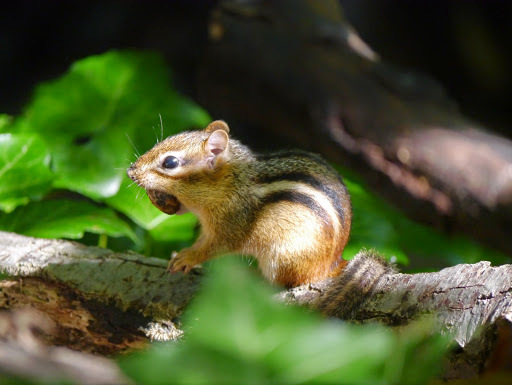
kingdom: Animalia
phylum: Chordata
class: Mammalia
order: Rodentia
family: Sciuridae
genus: Tamias
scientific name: Tamias striatus
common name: Eastern chipmunk
